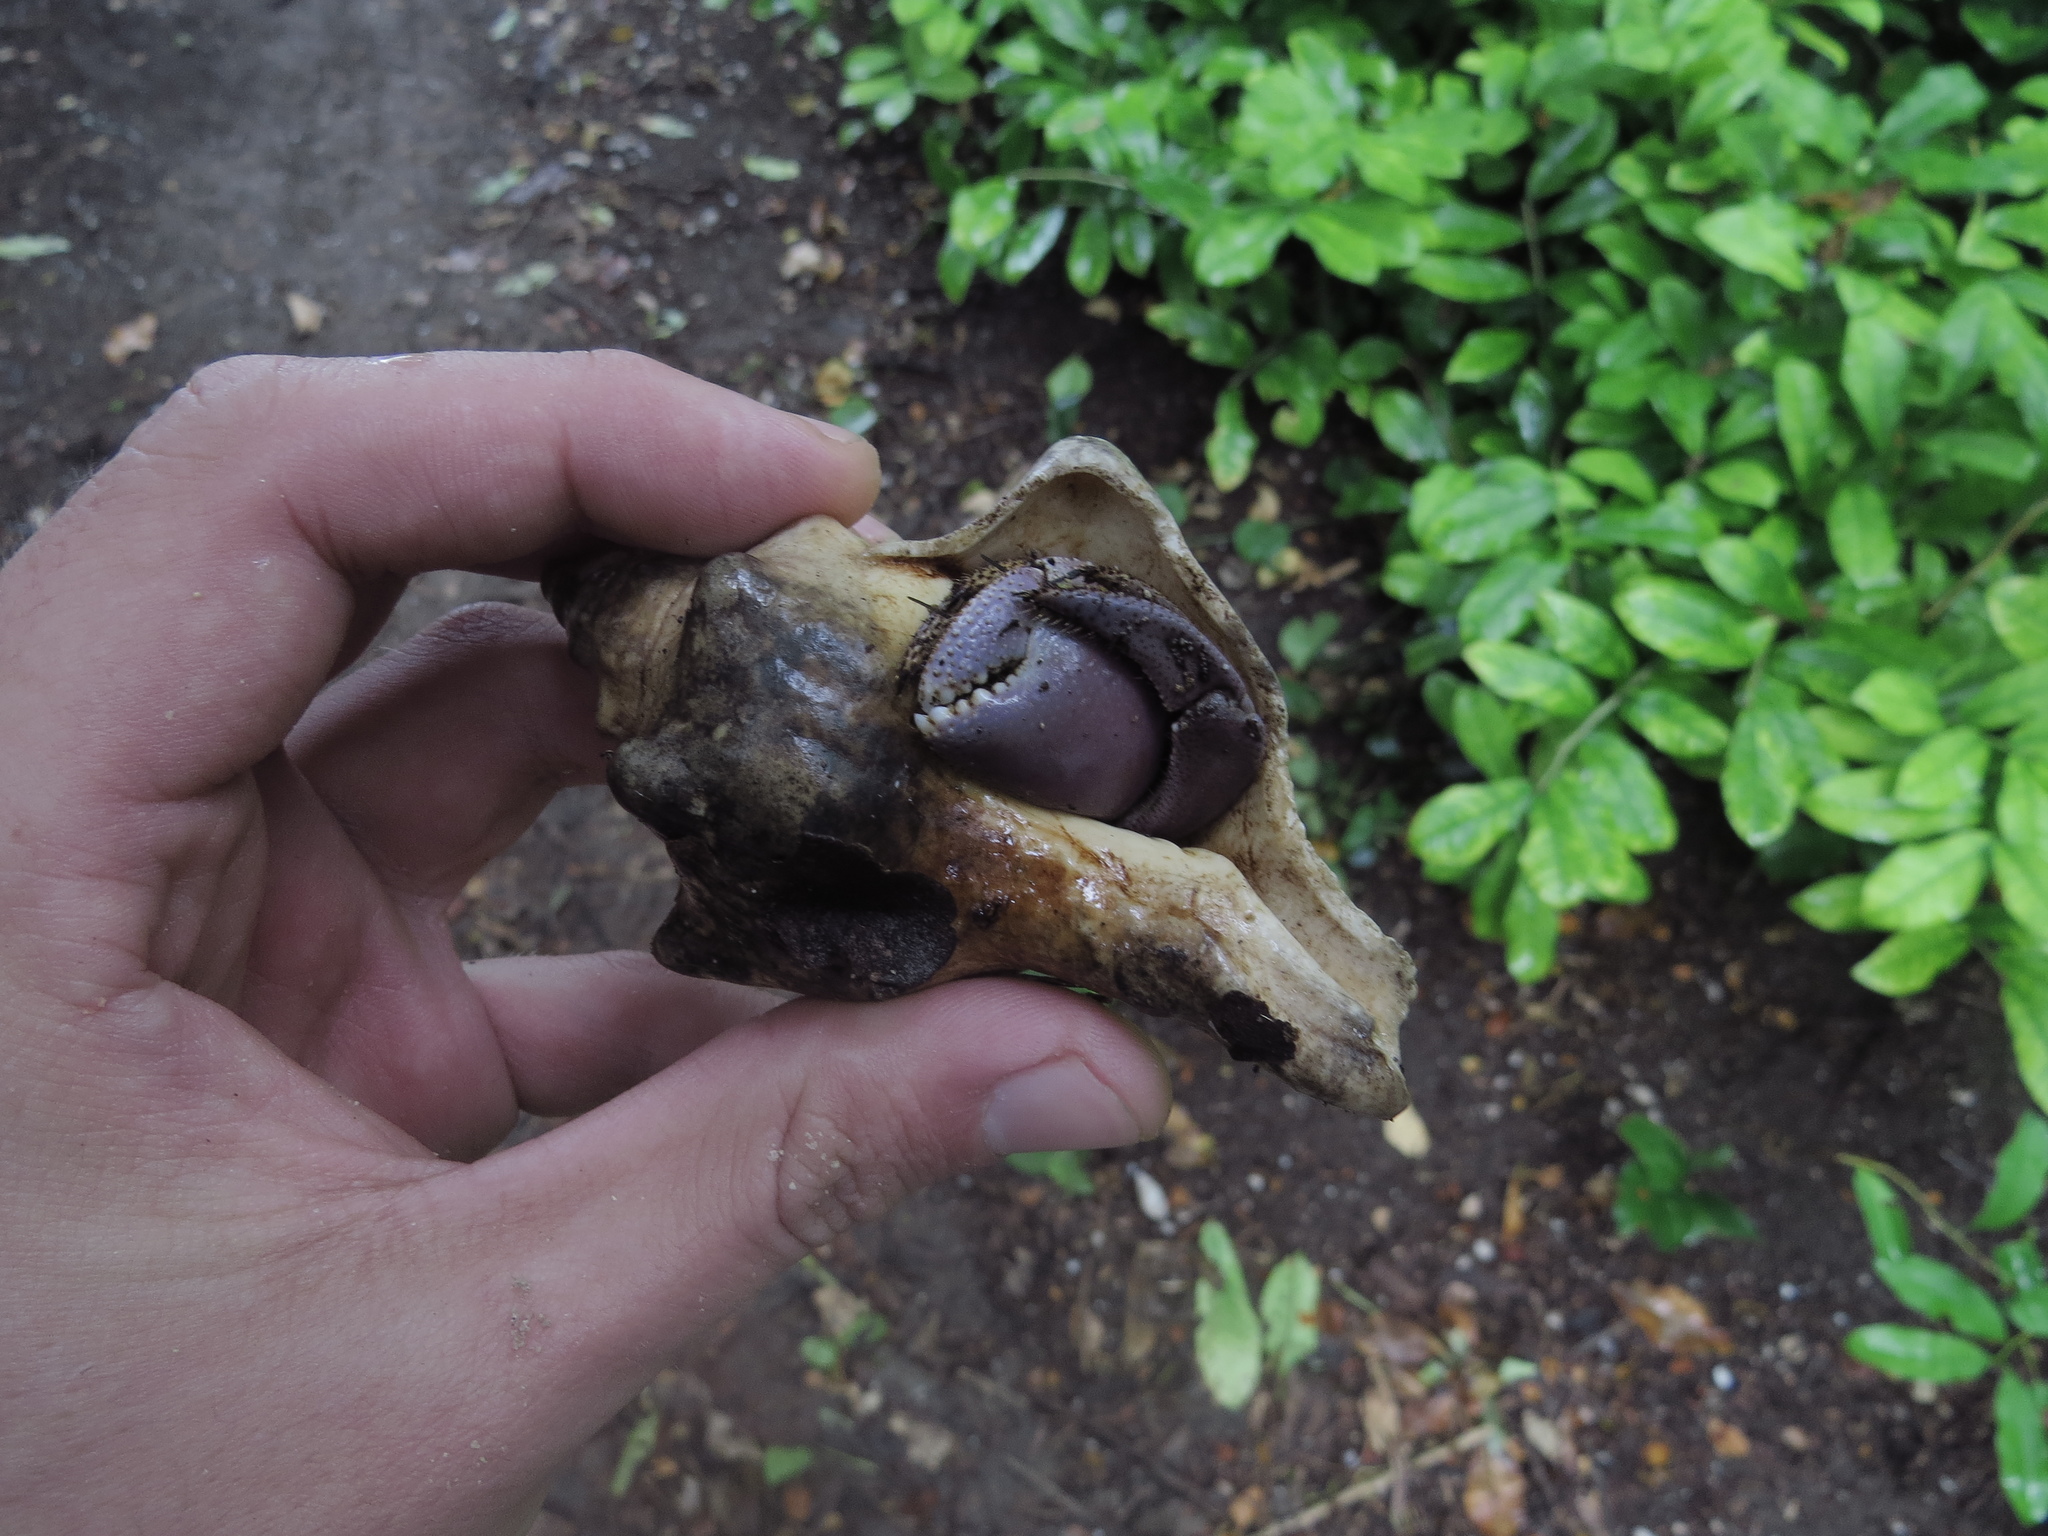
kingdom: Animalia
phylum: Arthropoda
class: Malacostraca
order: Decapoda
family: Coenobitidae
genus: Coenobita
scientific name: Coenobita brevimanus
